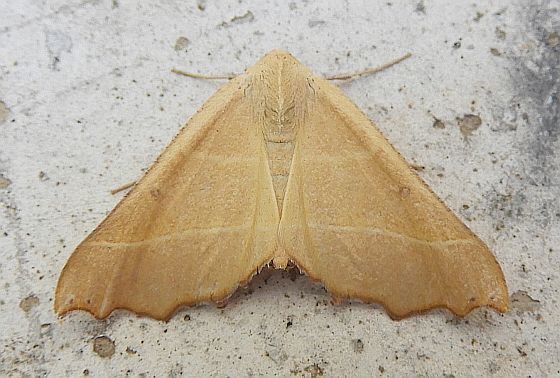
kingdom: Animalia
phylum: Arthropoda
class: Insecta
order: Lepidoptera
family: Geometridae
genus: Pero
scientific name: Pero radiosaria
